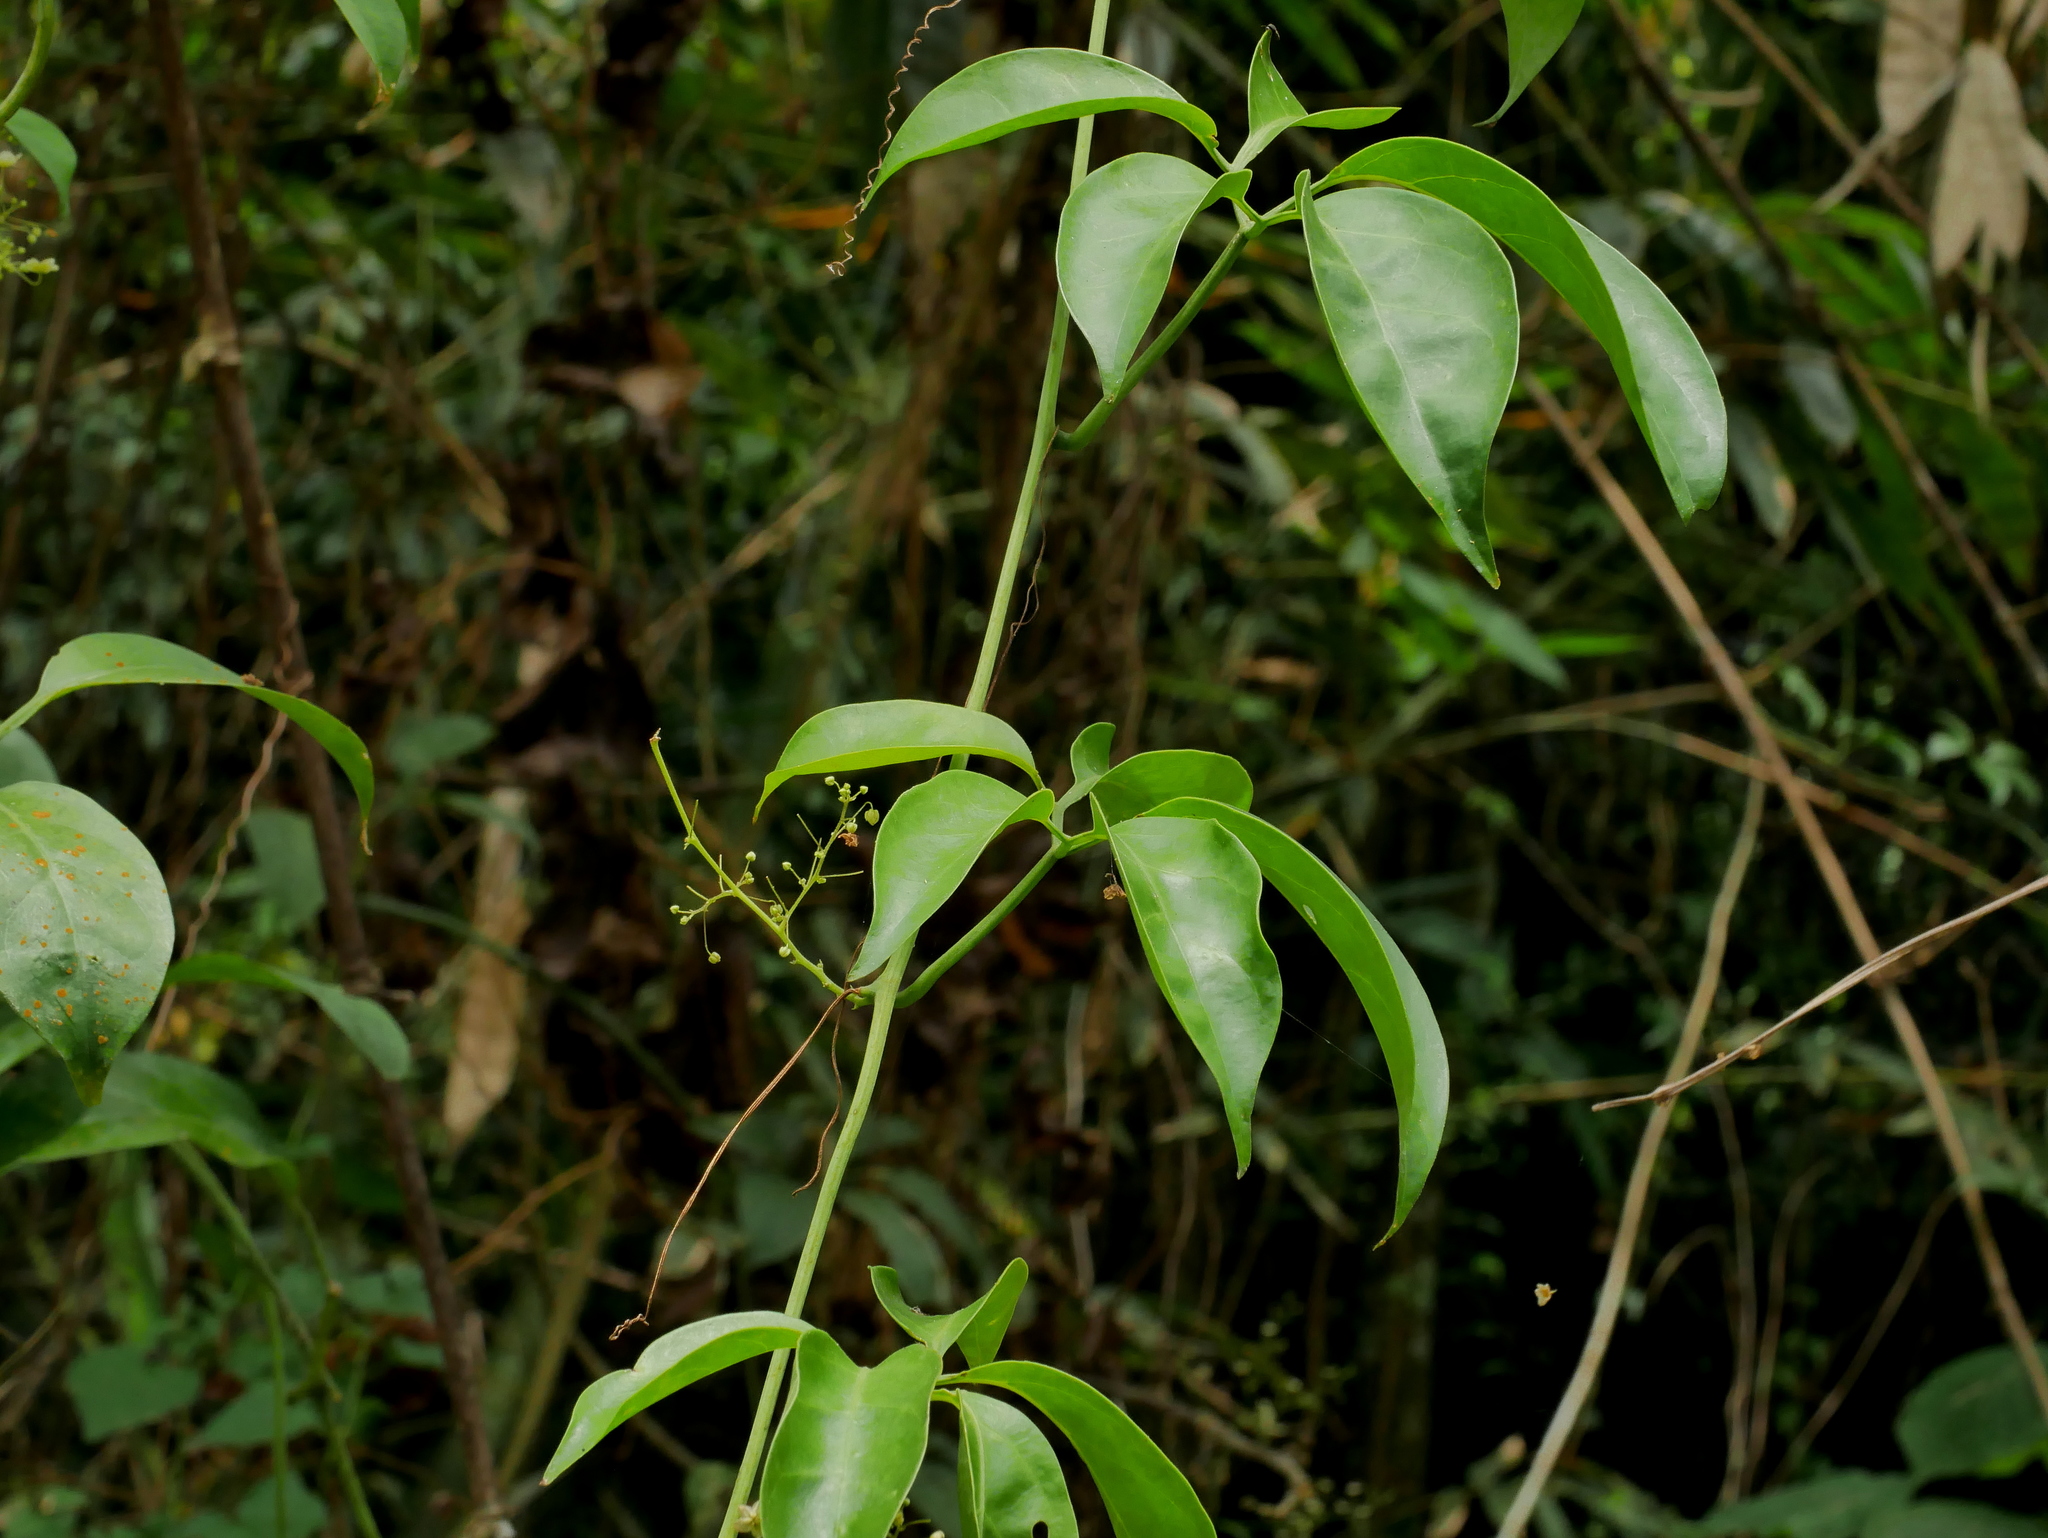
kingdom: Plantae
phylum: Tracheophyta
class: Magnoliopsida
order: Cucurbitales
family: Cucurbitaceae
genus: Neoalsomitra
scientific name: Neoalsomitra clavigera
